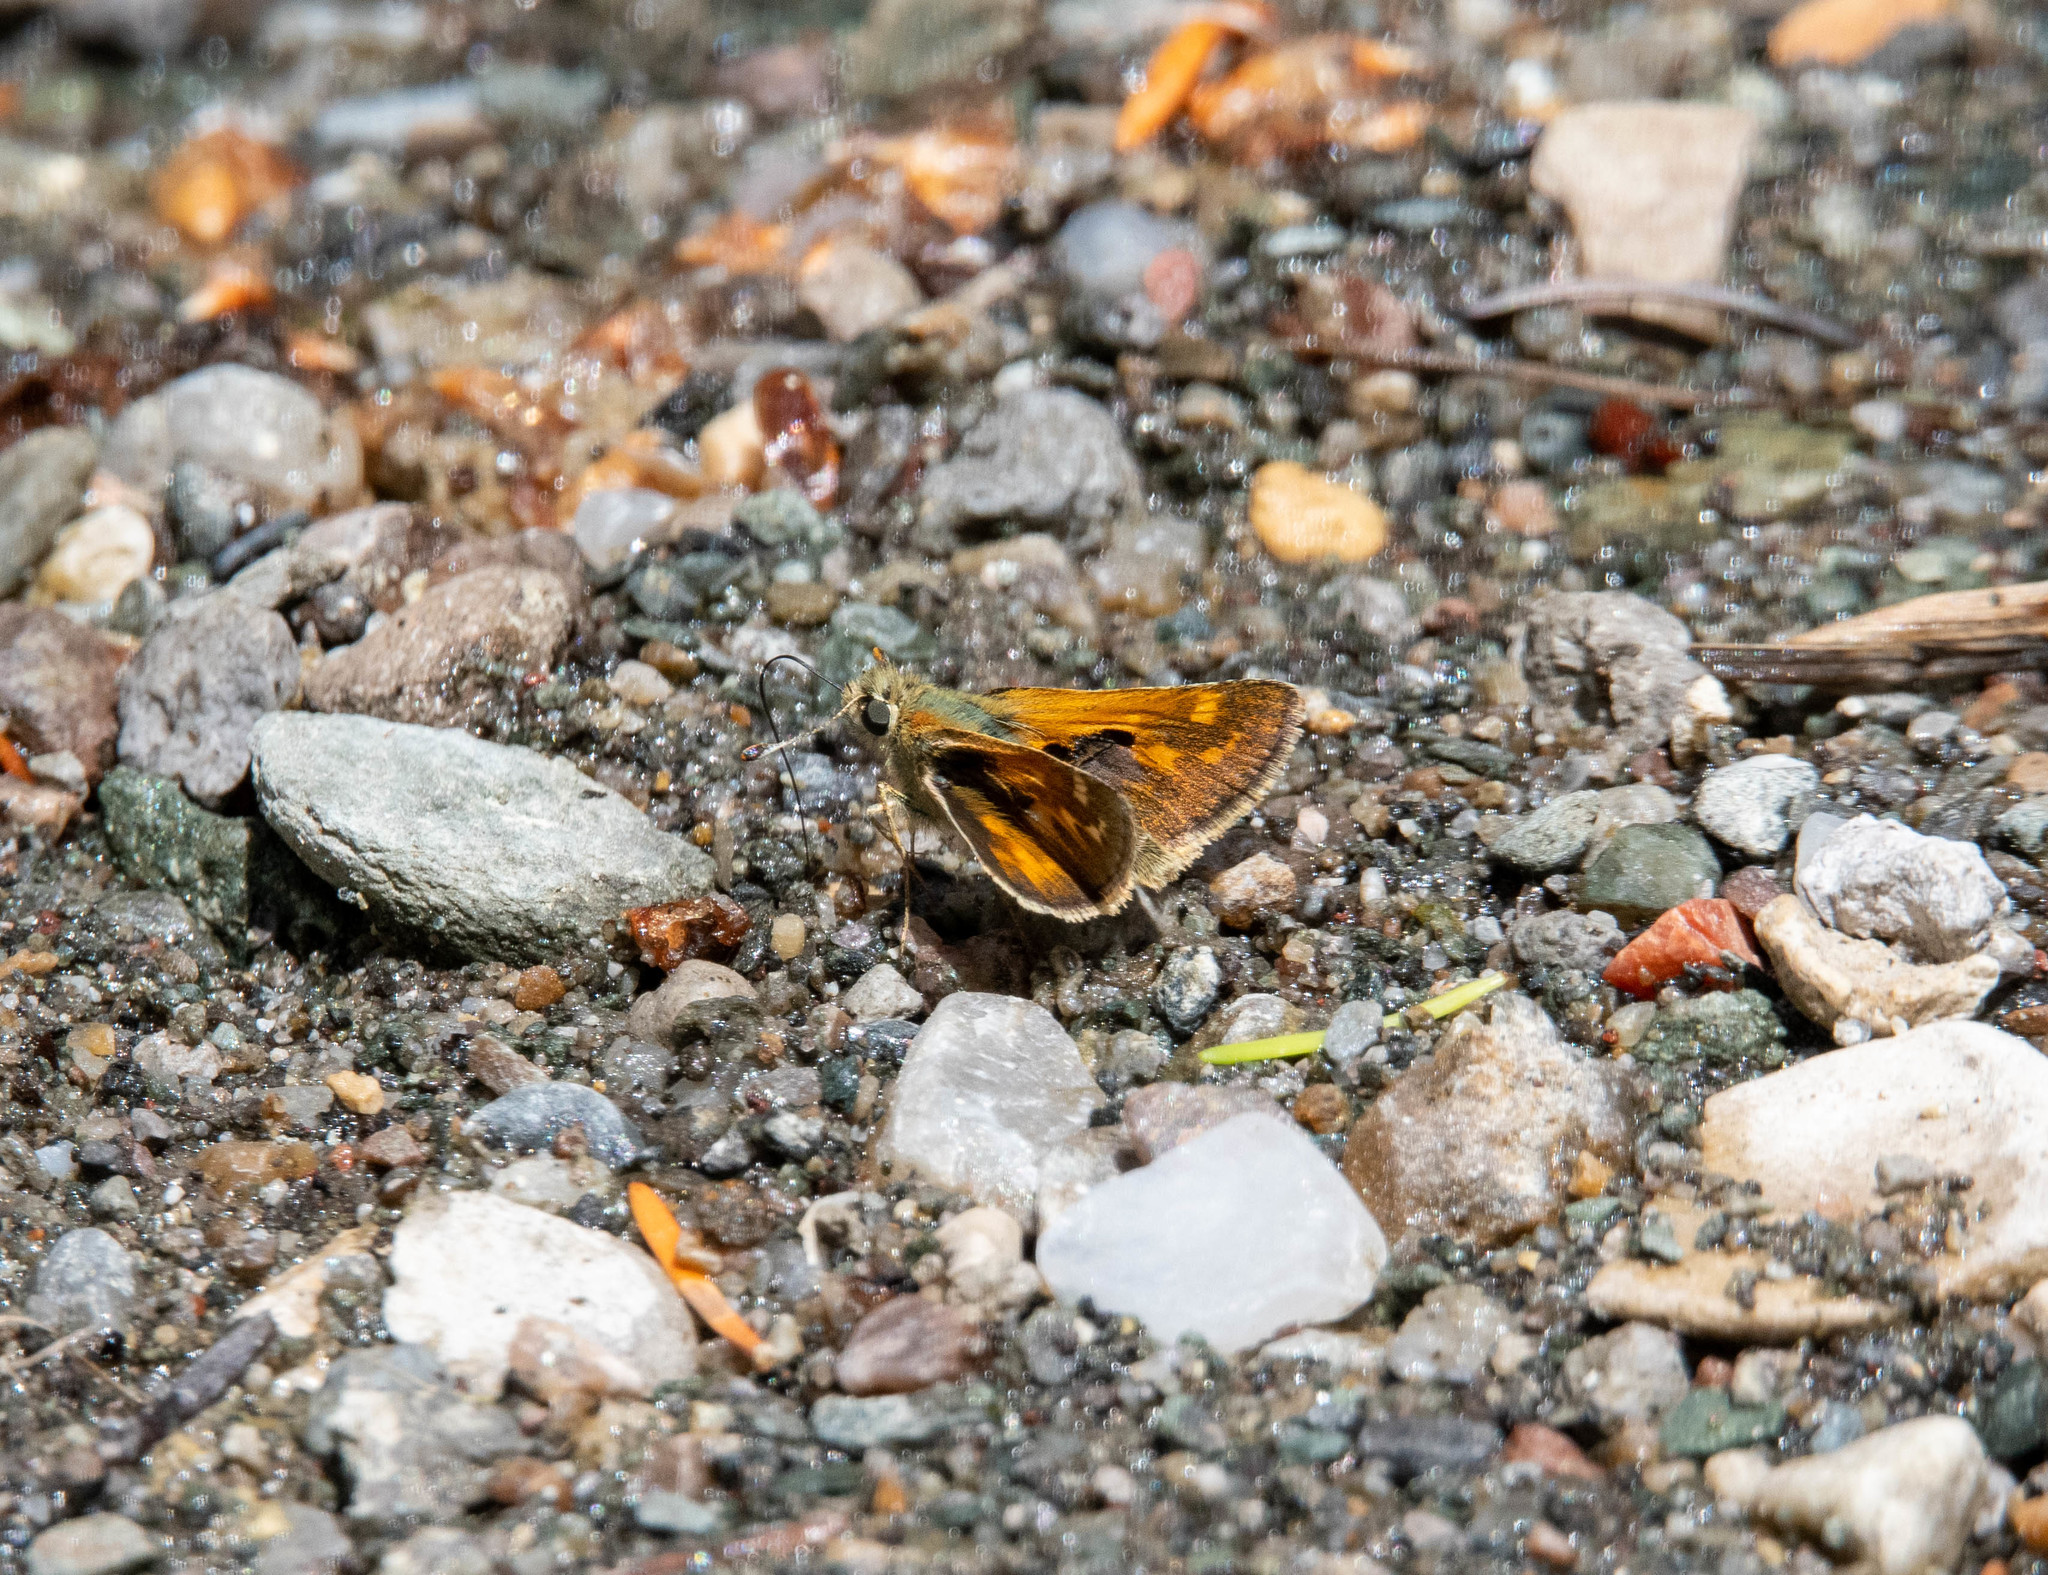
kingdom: Animalia
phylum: Arthropoda
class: Insecta
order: Lepidoptera
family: Hesperiidae
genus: Polites
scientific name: Polites sabuleti
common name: Sandhill skipper
